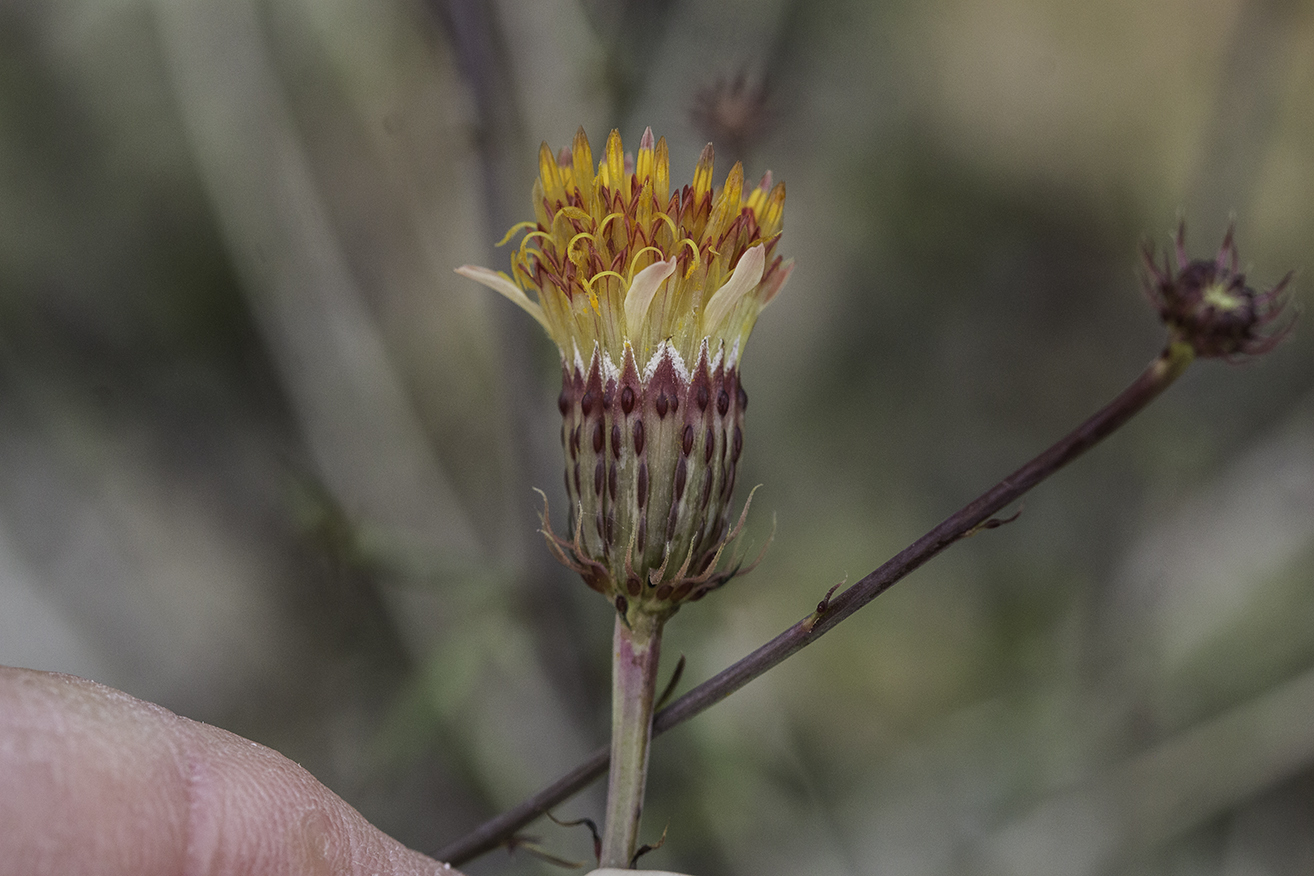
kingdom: Plantae
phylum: Tracheophyta
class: Magnoliopsida
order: Asterales
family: Asteraceae
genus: Adenophyllum
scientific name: Adenophyllum porophylloides
